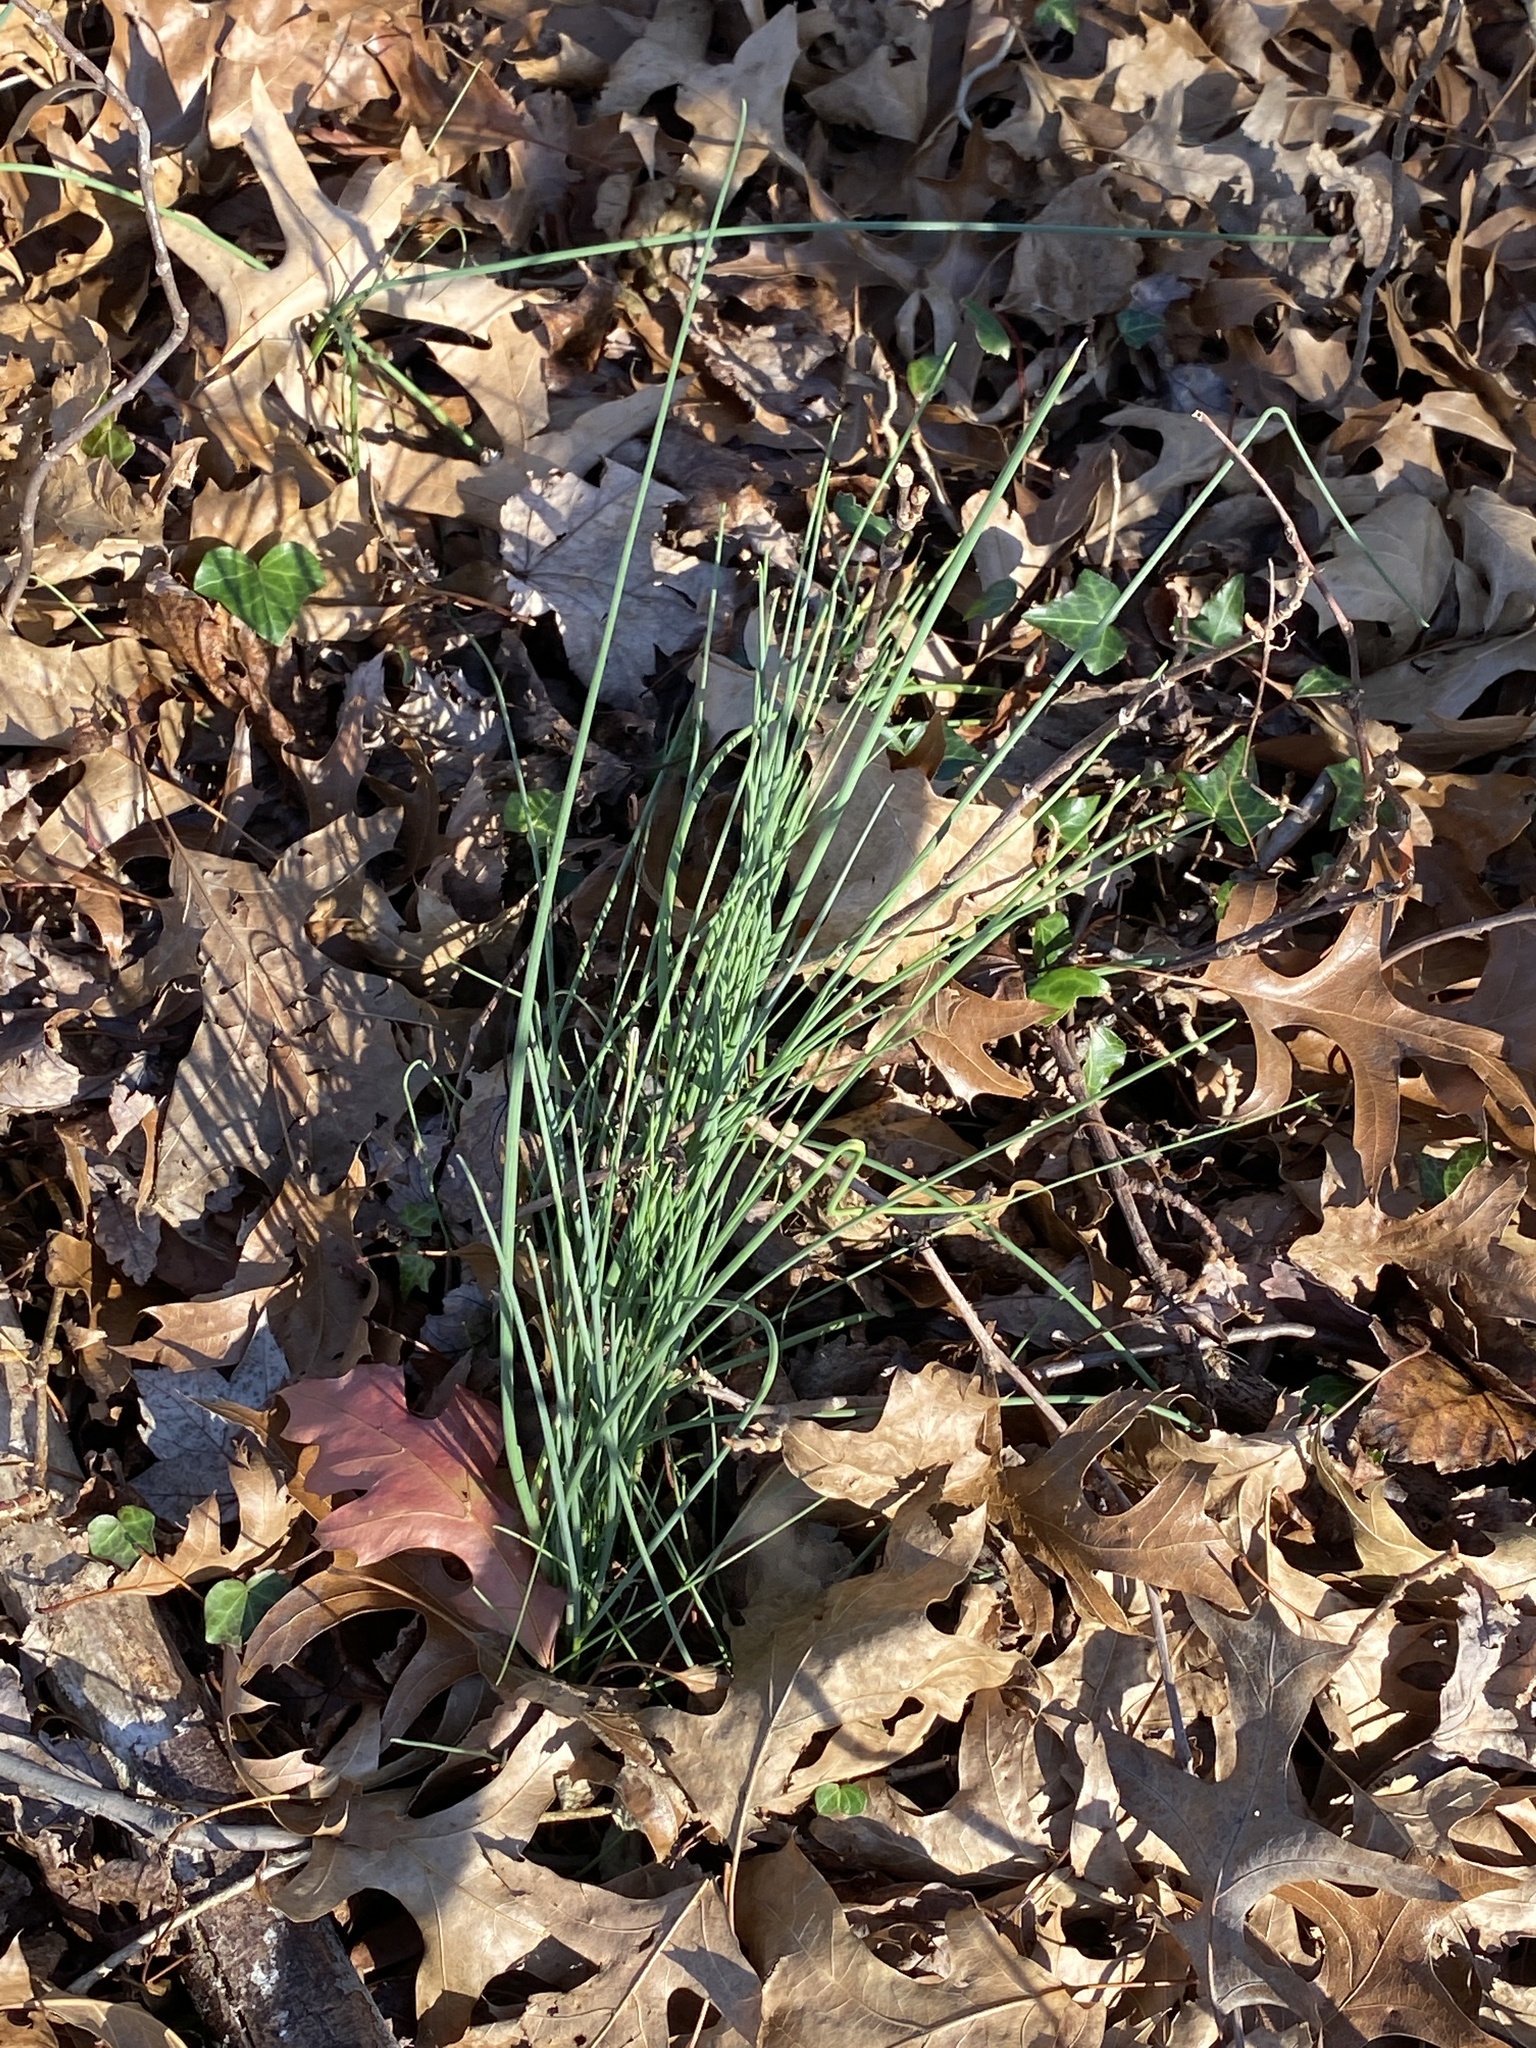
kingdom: Plantae
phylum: Tracheophyta
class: Liliopsida
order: Asparagales
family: Amaryllidaceae
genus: Allium
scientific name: Allium vineale
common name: Crow garlic
